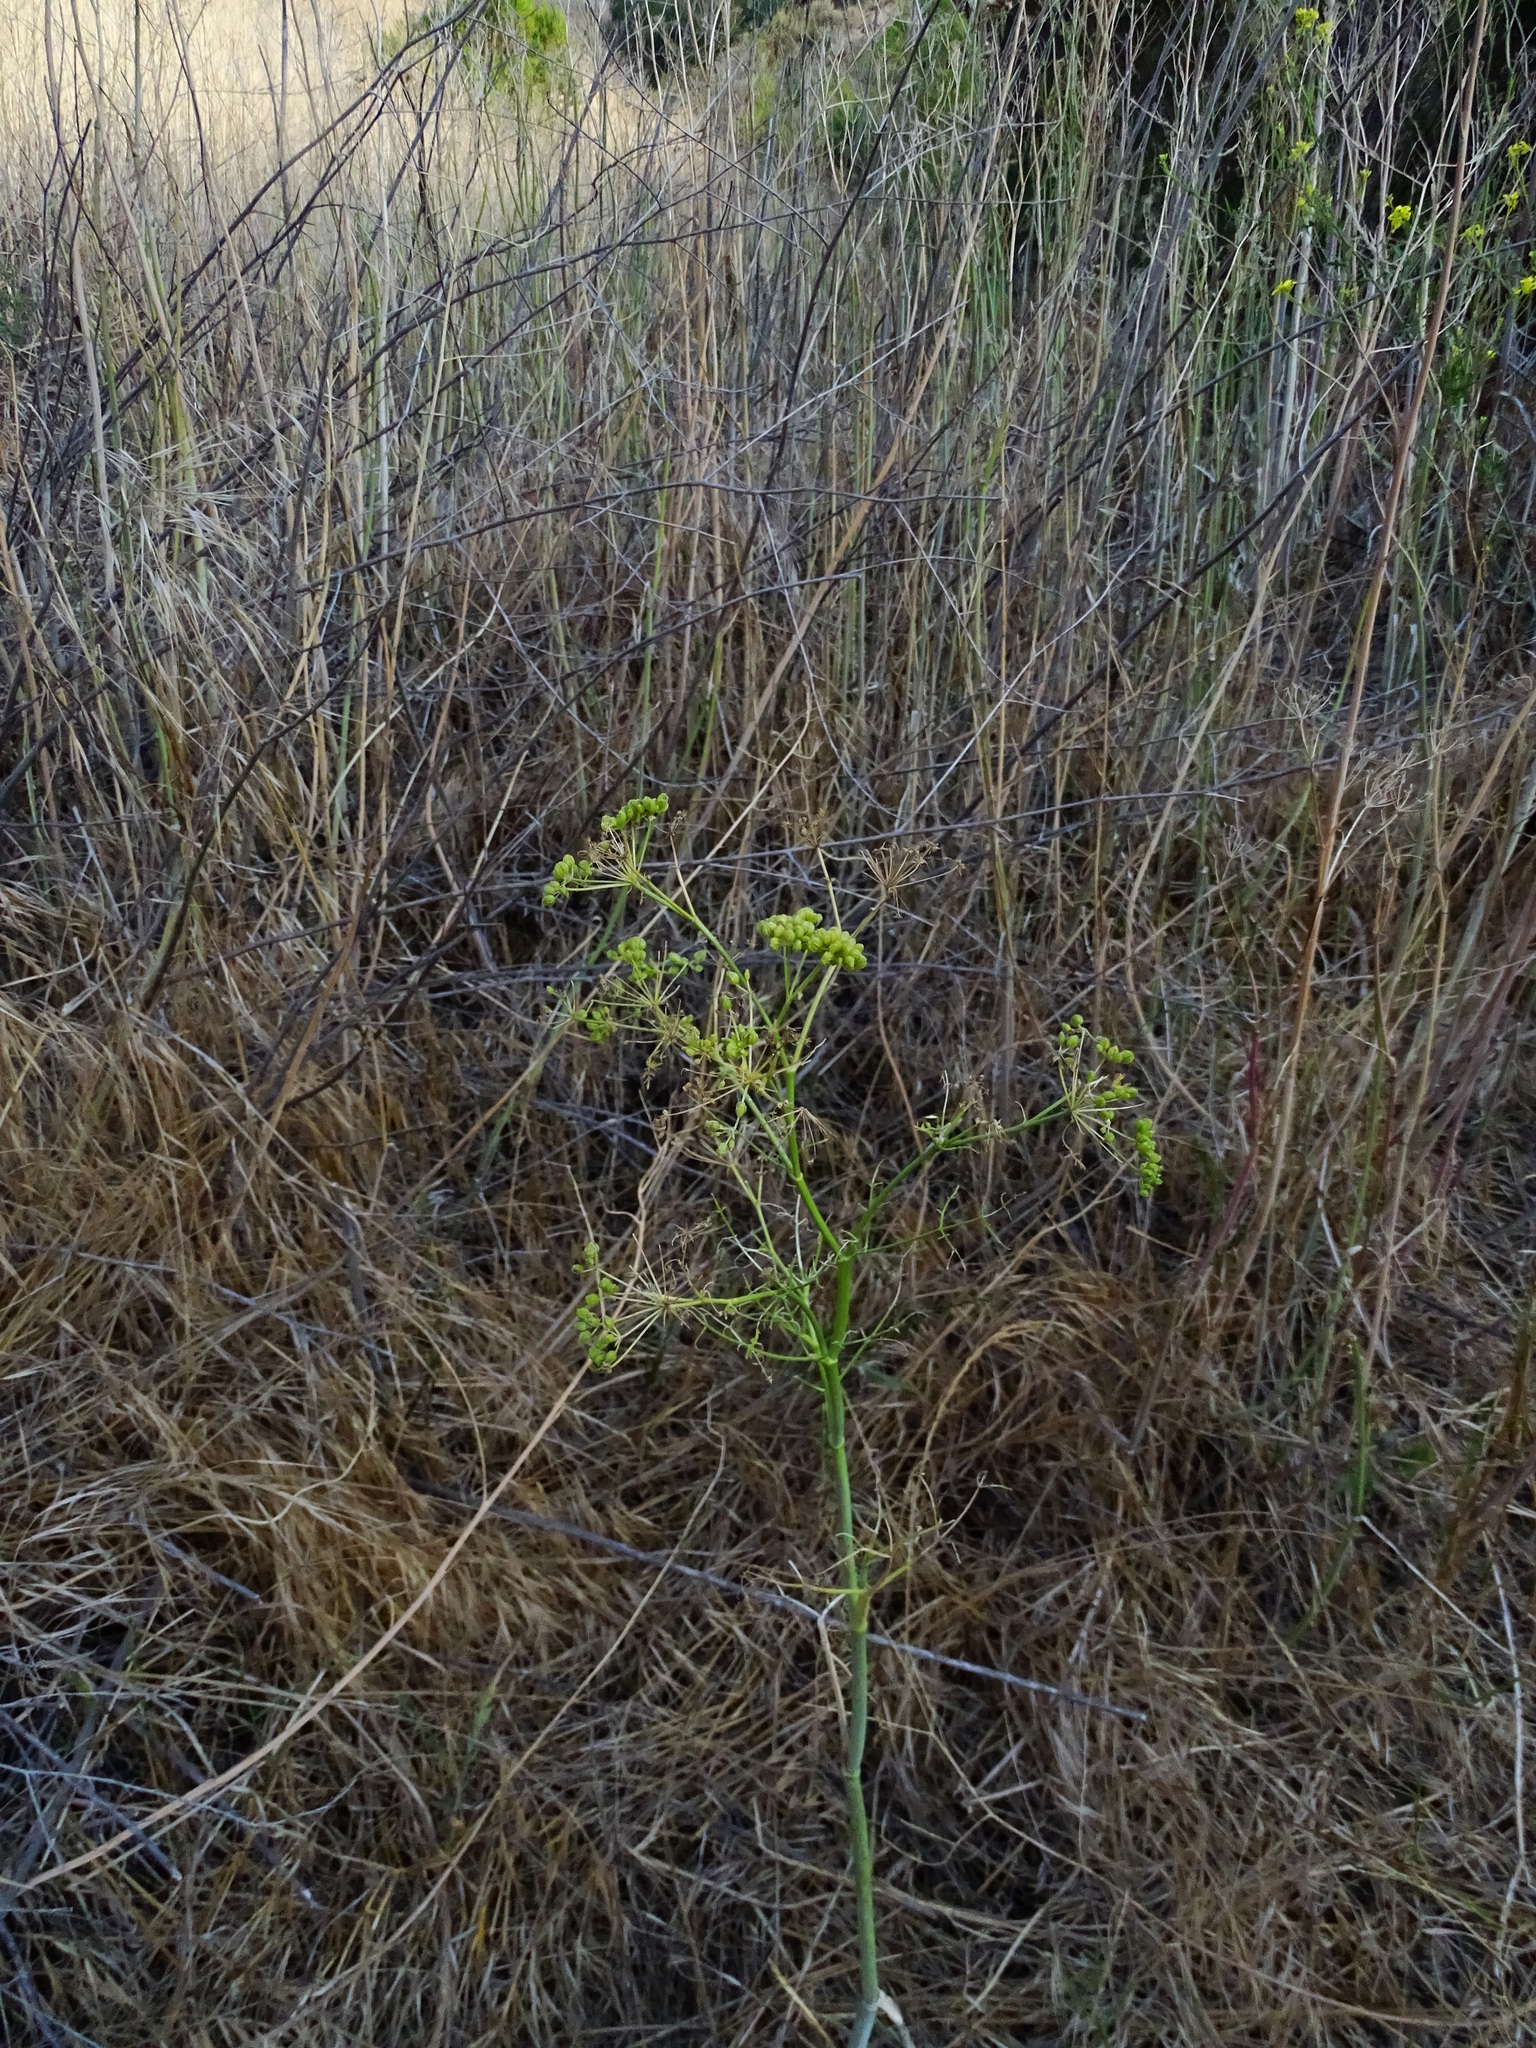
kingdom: Plantae
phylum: Tracheophyta
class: Magnoliopsida
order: Apiales
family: Apiaceae
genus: Conium
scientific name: Conium maculatum
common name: Hemlock
